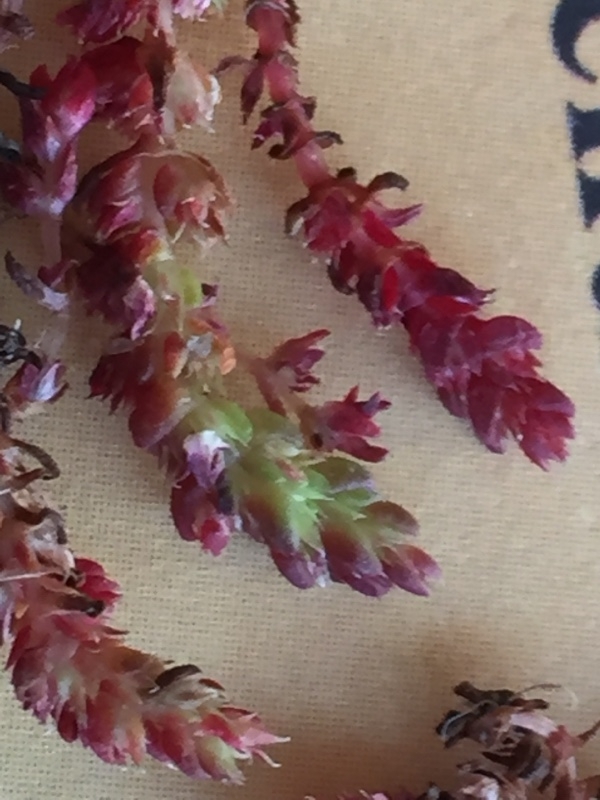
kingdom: Plantae
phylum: Tracheophyta
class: Magnoliopsida
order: Saxifragales
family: Crassulaceae
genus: Crassula
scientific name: Crassula tillaea
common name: Mossy stonecrop
